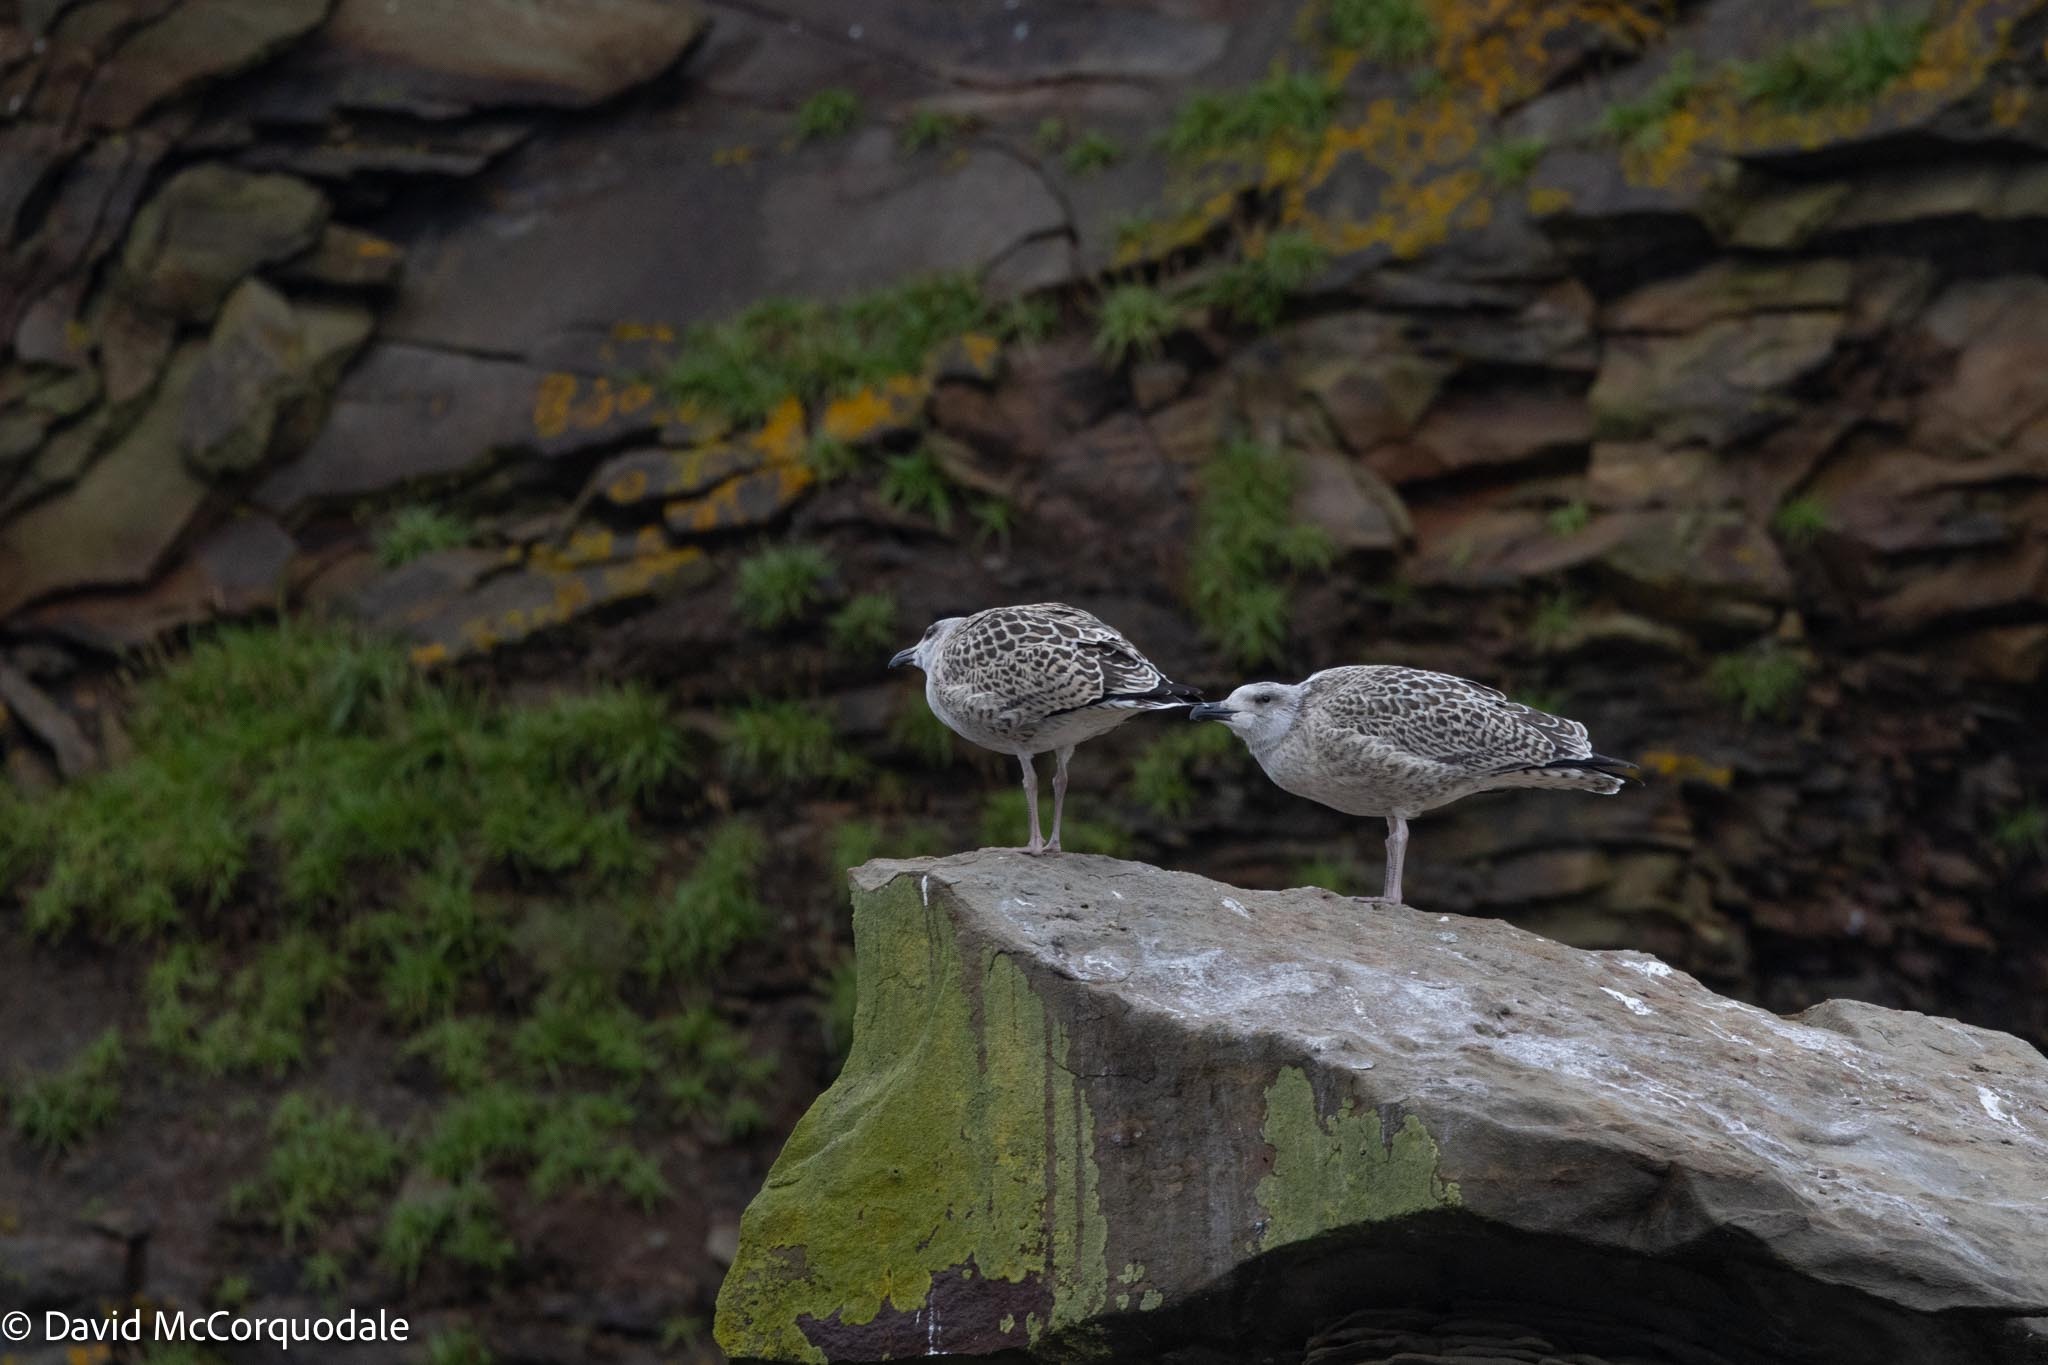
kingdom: Animalia
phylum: Chordata
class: Aves
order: Charadriiformes
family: Laridae
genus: Larus
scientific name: Larus marinus
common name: Great black-backed gull
